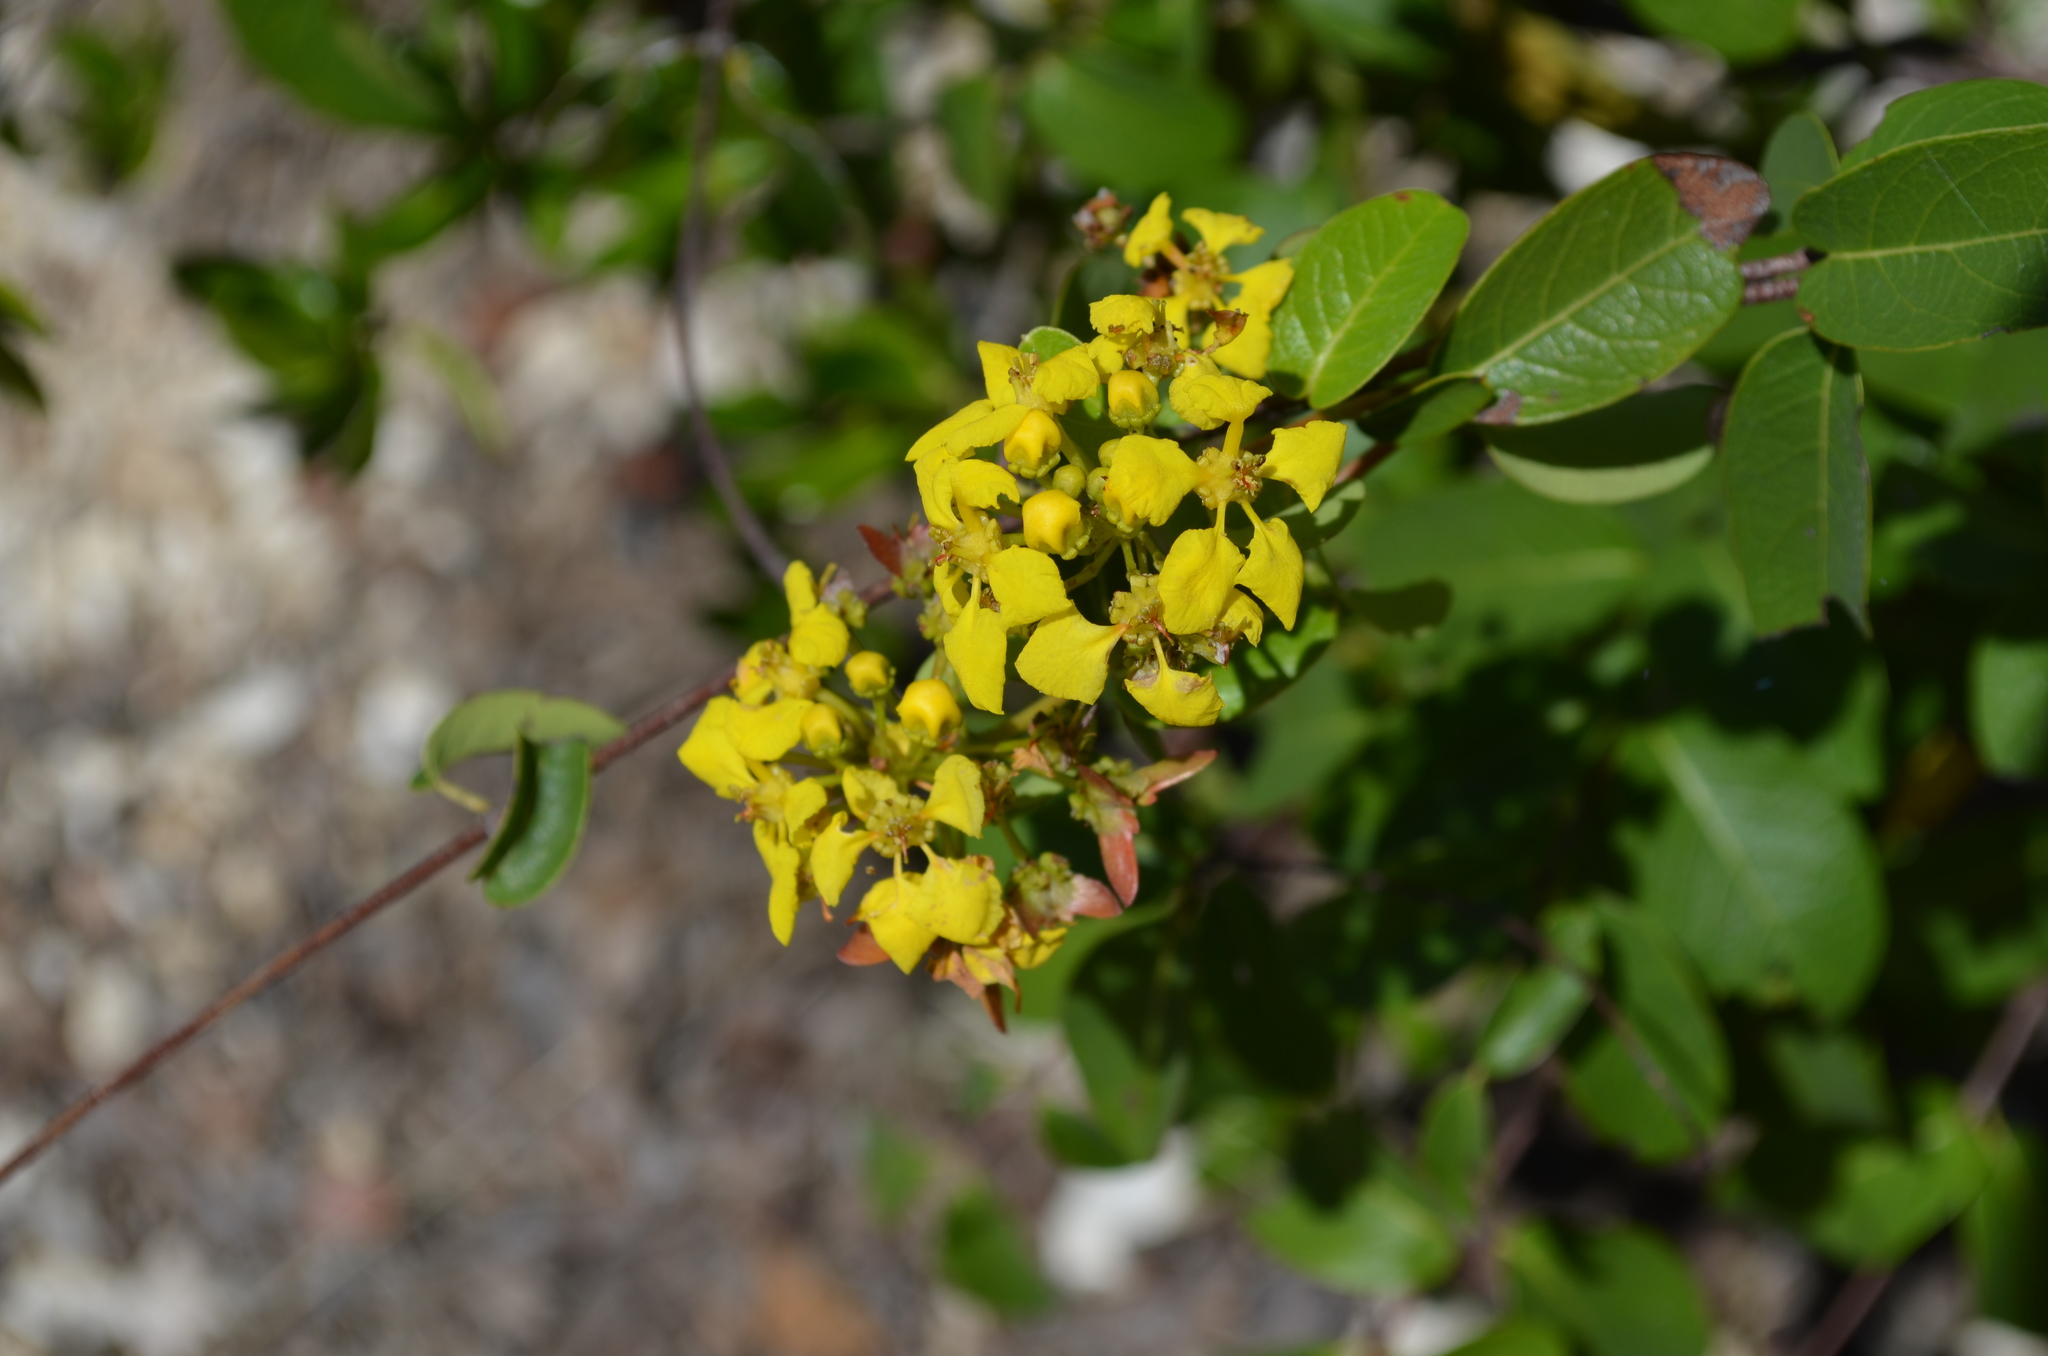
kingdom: Plantae
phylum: Tracheophyta
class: Magnoliopsida
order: Malpighiales
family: Malpighiaceae
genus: Stigmaphyllon
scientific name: Stigmaphyllon emarginatum
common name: Monarch amazonvine
